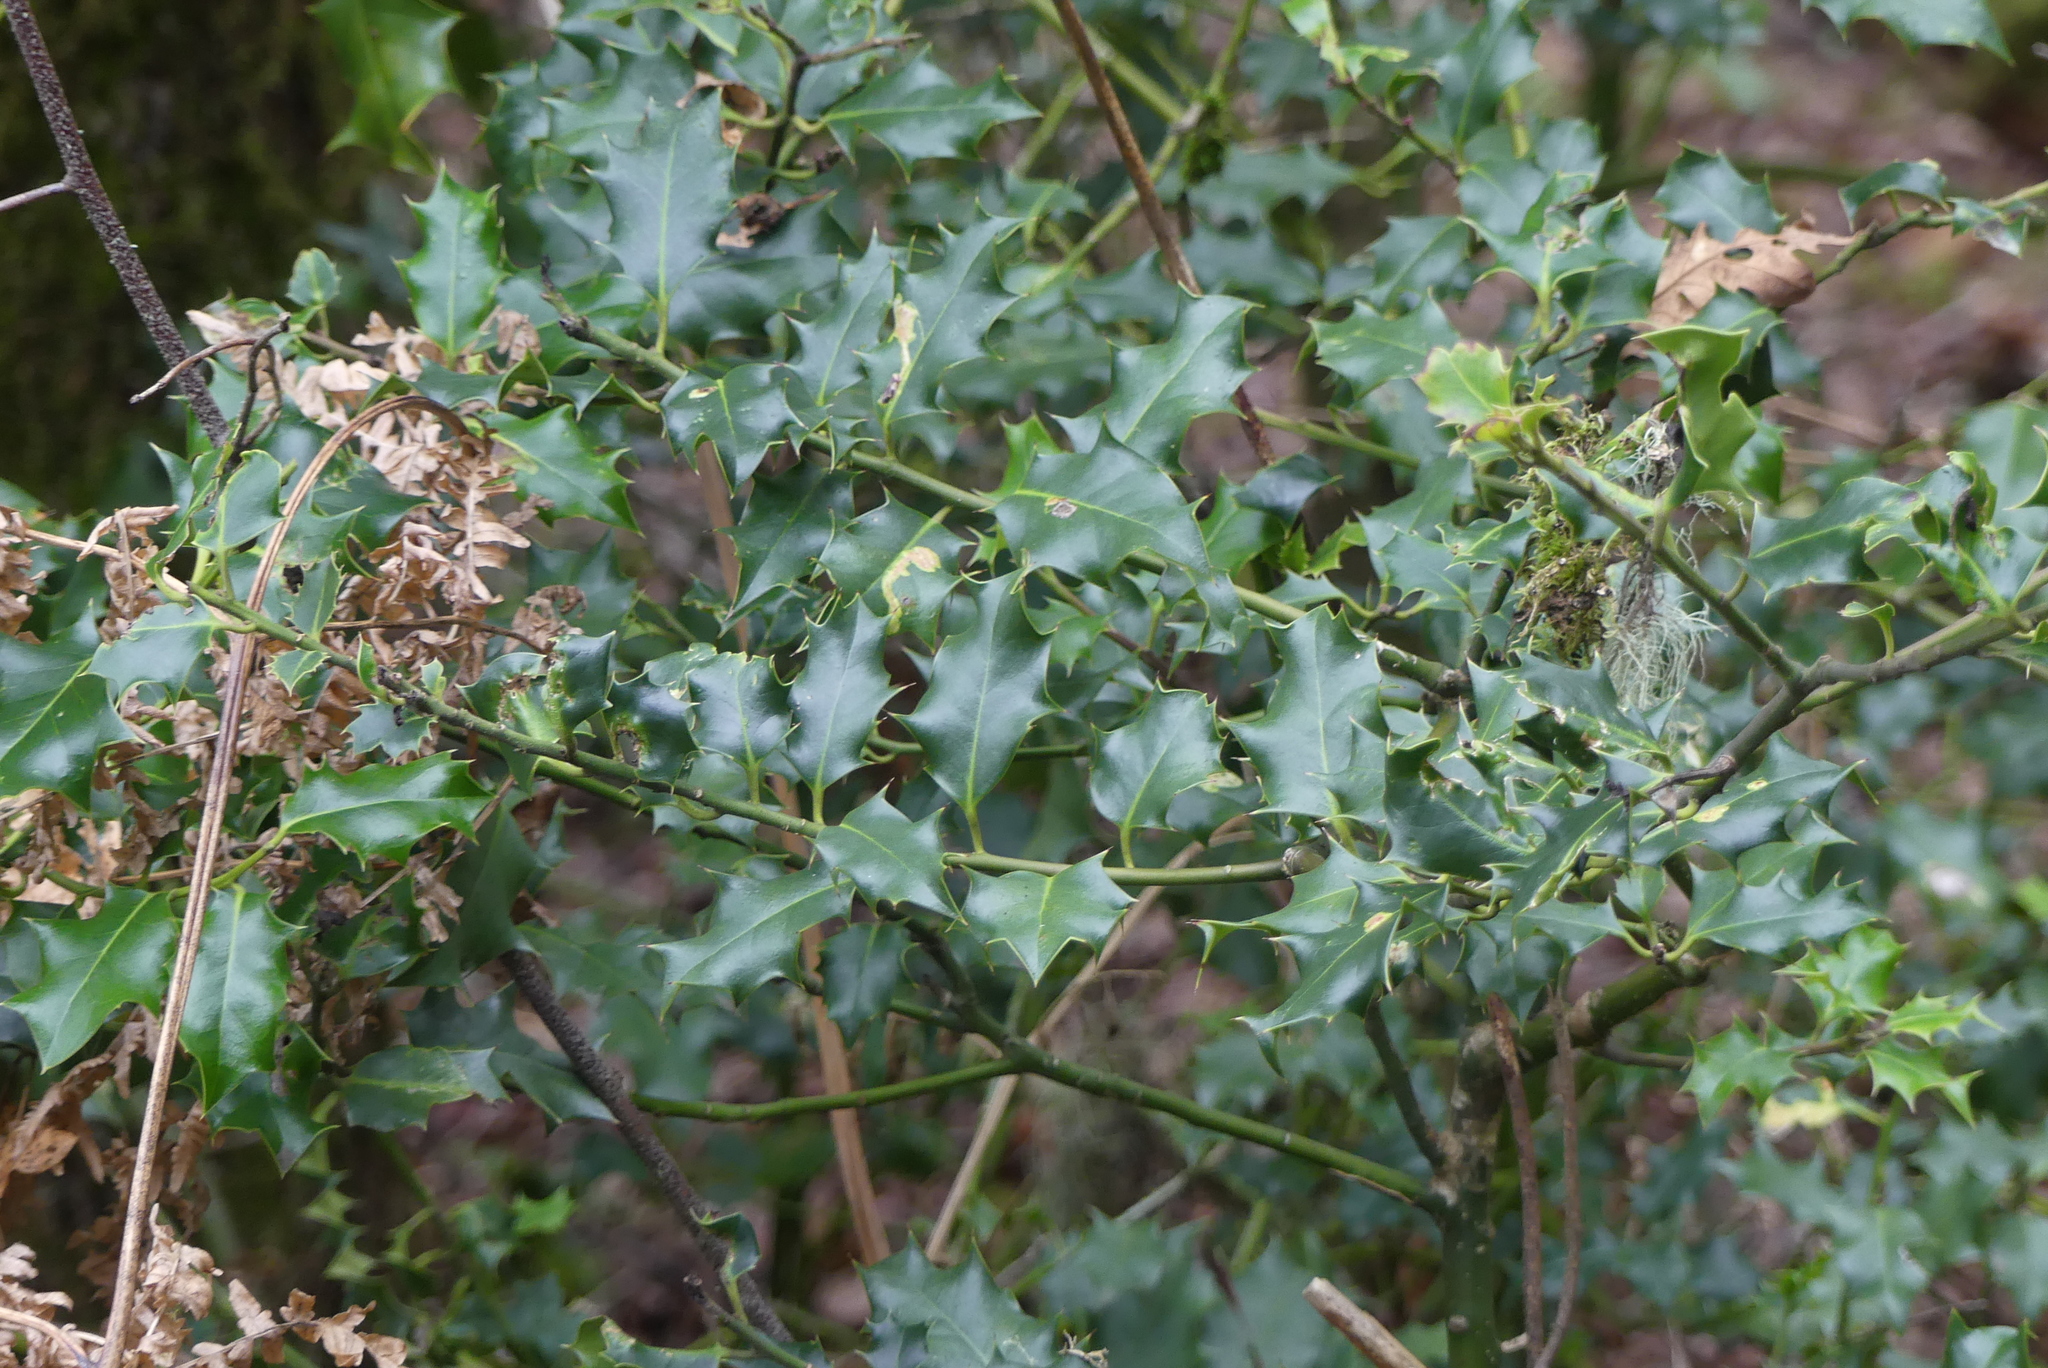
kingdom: Plantae
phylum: Tracheophyta
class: Magnoliopsida
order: Aquifoliales
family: Aquifoliaceae
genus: Ilex
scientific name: Ilex aquifolium
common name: English holly
